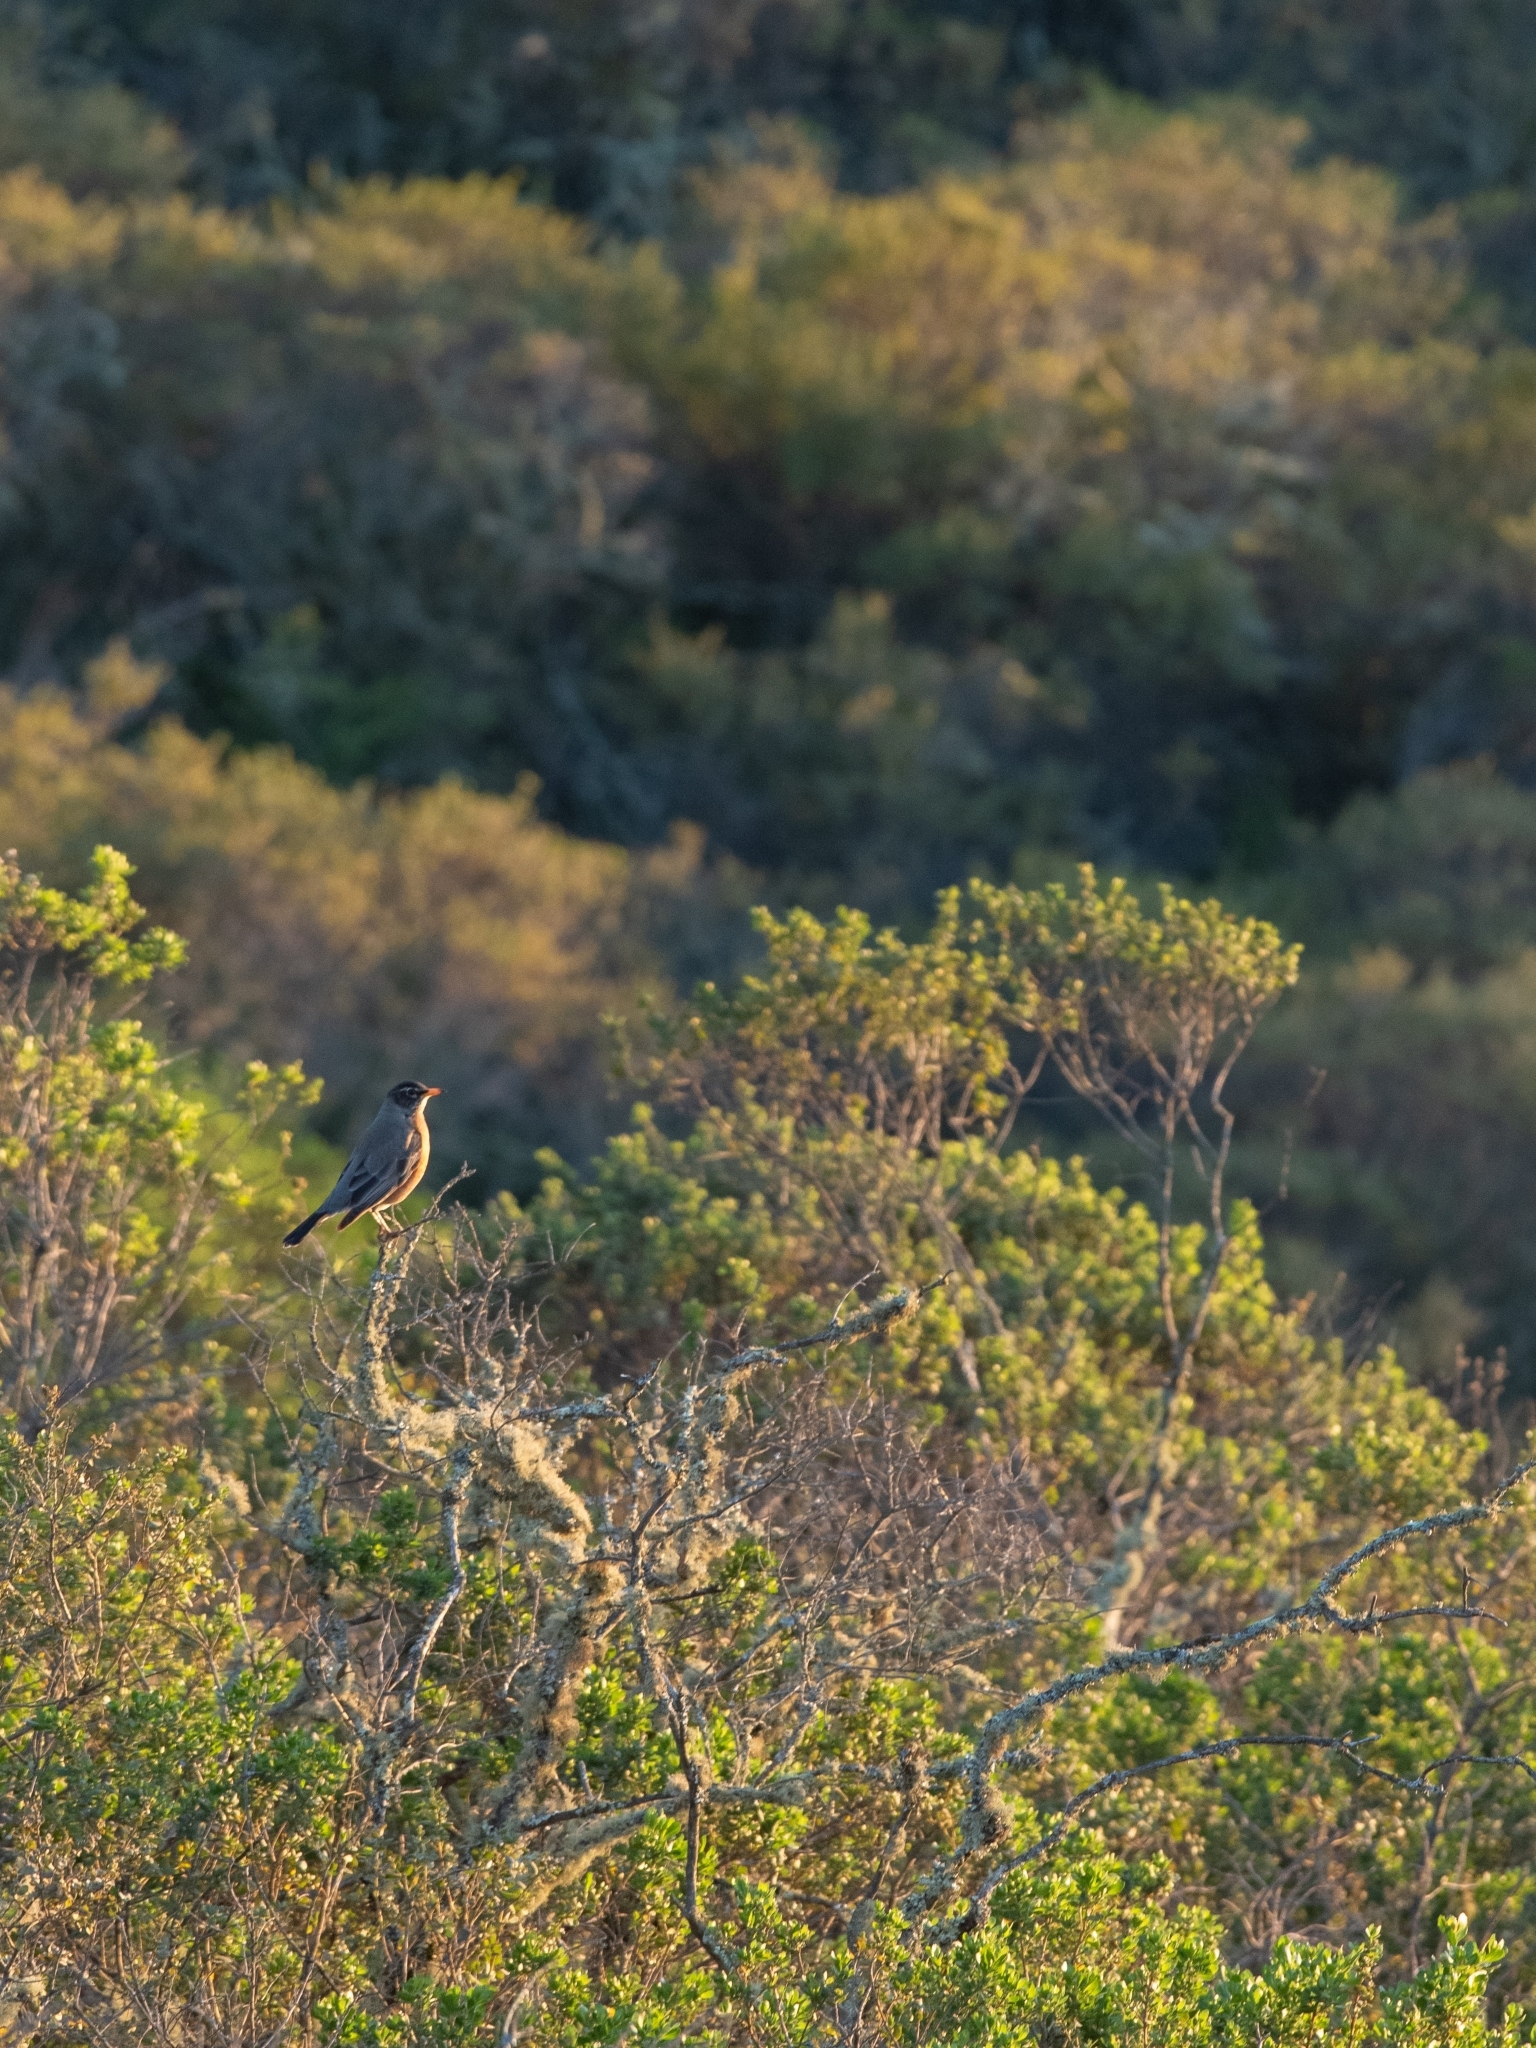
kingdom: Animalia
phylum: Chordata
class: Aves
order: Passeriformes
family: Turdidae
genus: Turdus
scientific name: Turdus migratorius
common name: American robin
